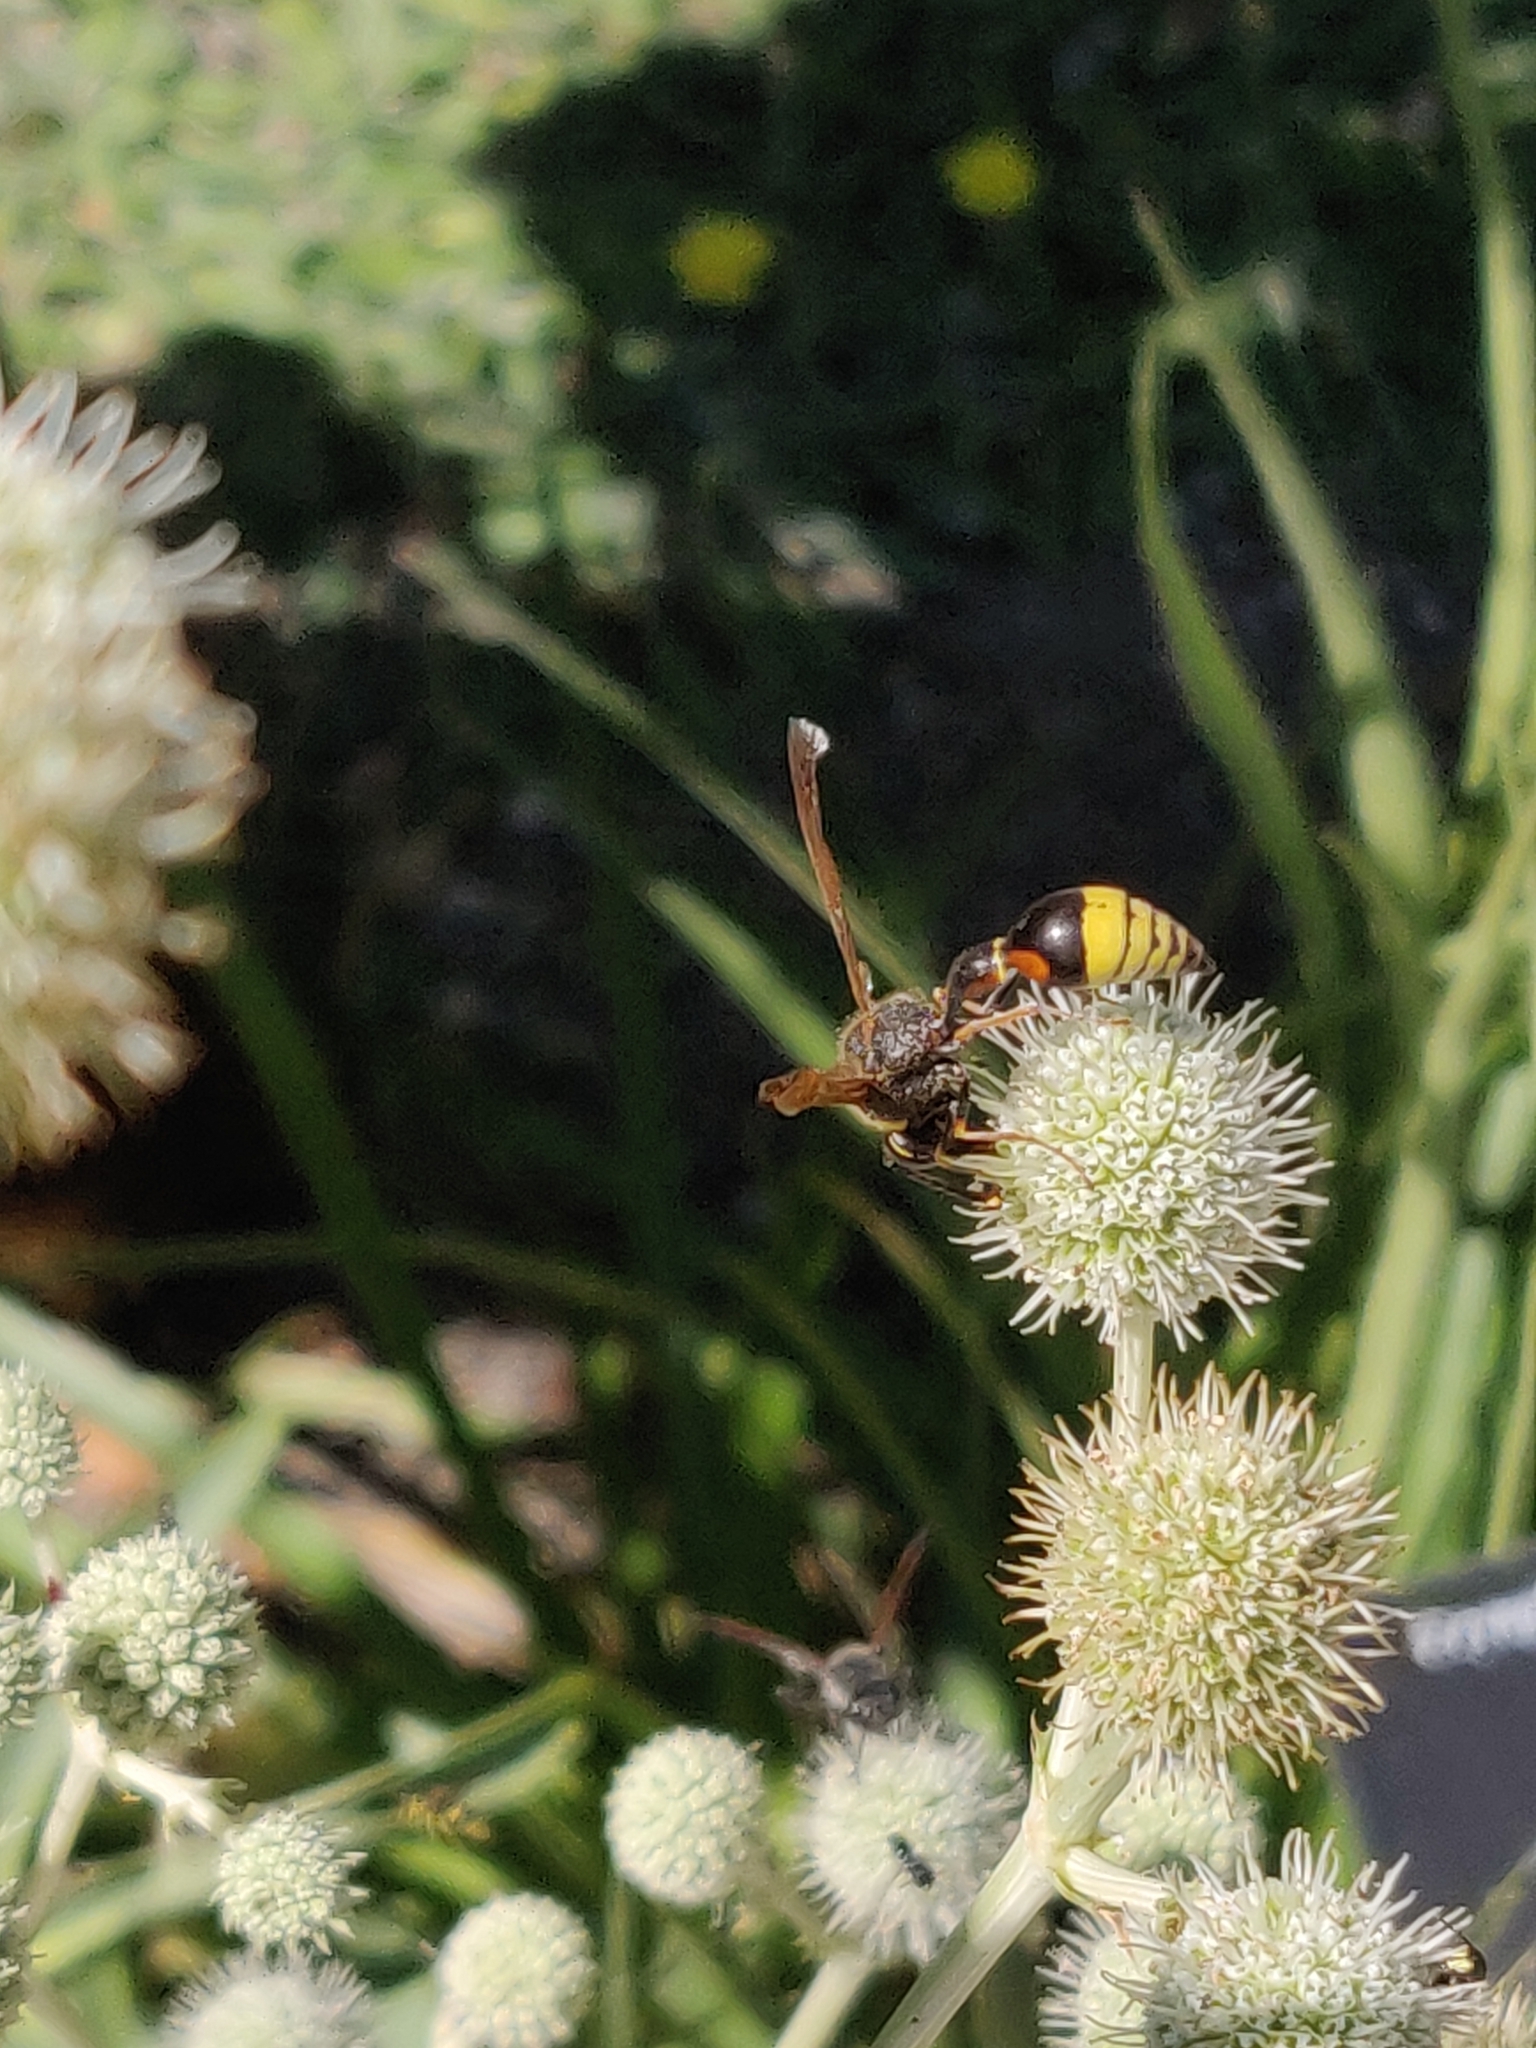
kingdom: Animalia
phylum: Arthropoda
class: Insecta
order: Hymenoptera
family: Eumenidae
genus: Delta
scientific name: Delta unguiculatum
